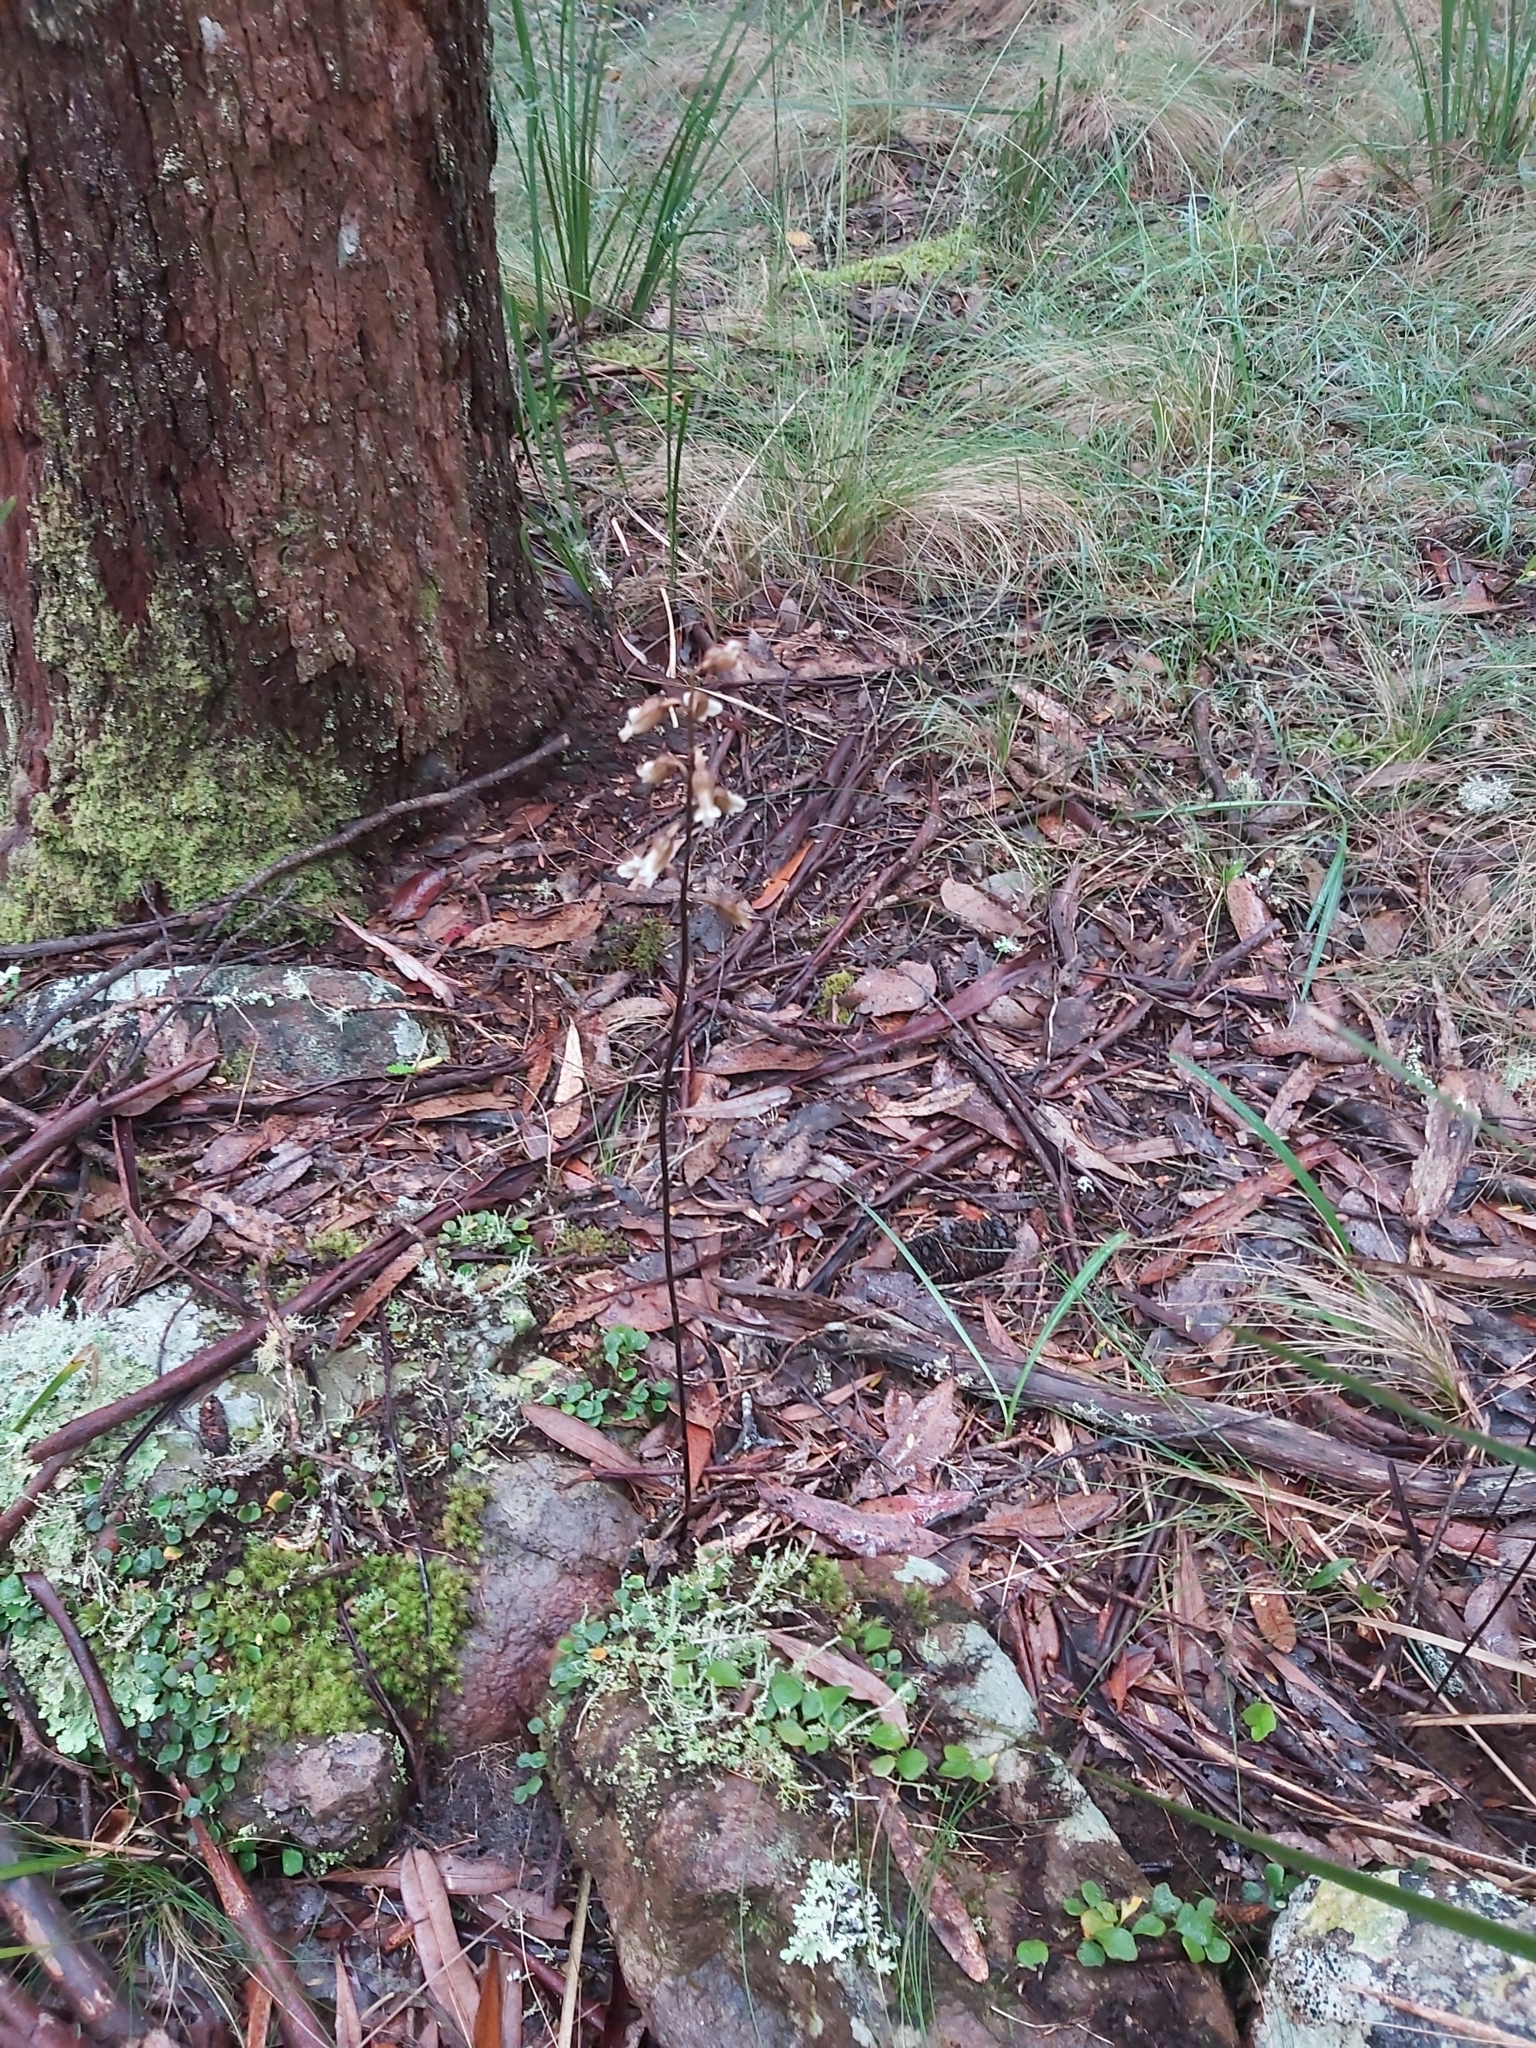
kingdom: Plantae
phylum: Tracheophyta
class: Liliopsida
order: Asparagales
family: Orchidaceae
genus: Gastrodia
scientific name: Gastrodia sesamoides
